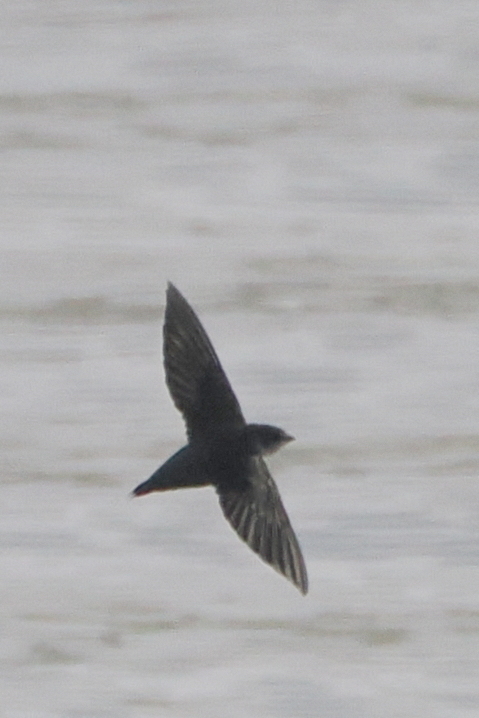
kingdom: Animalia
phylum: Chordata
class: Aves
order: Apodiformes
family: Apodidae
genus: Chaetura
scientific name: Chaetura vauxi
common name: Vaux's swift
